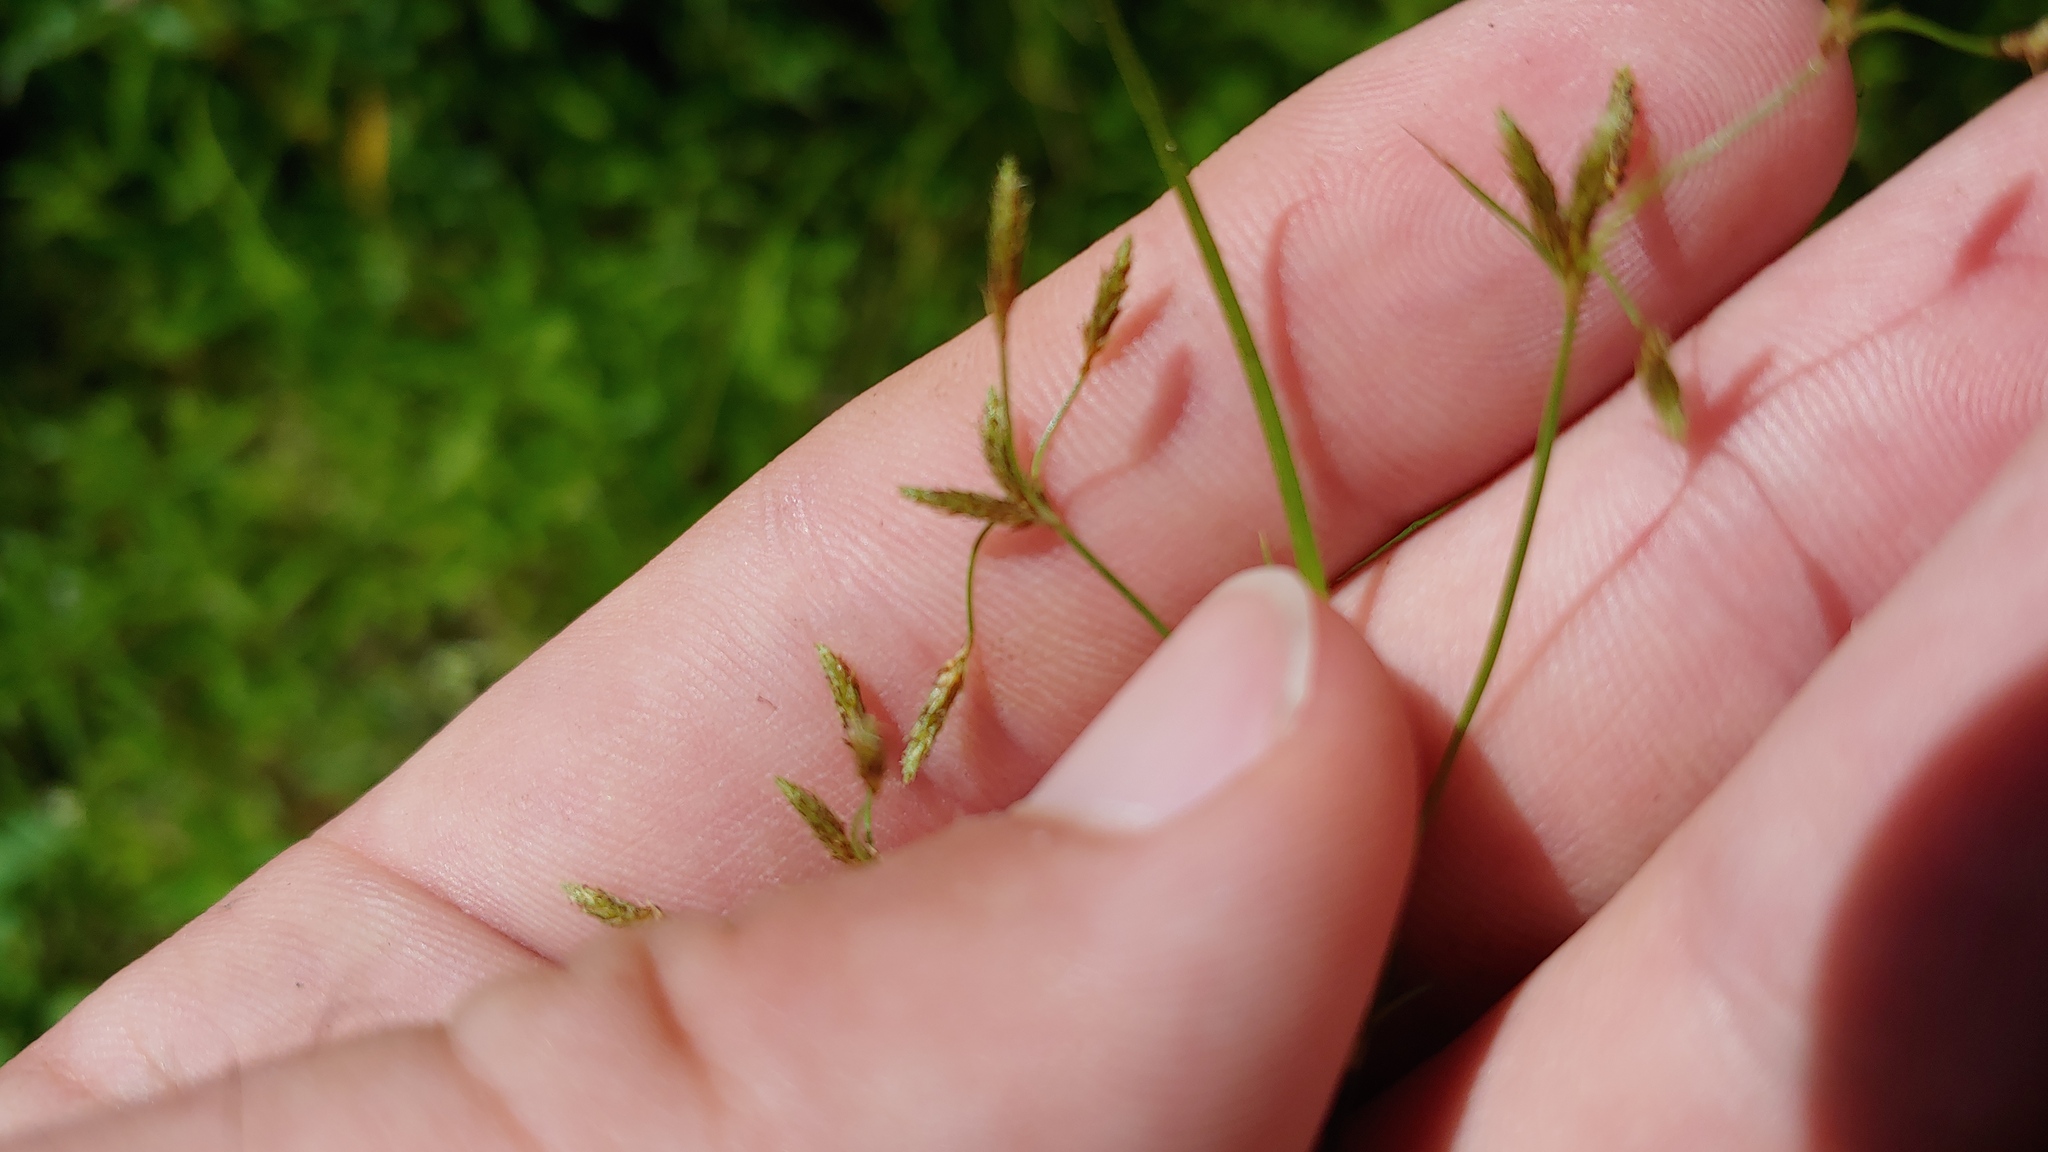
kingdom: Plantae
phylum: Tracheophyta
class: Liliopsida
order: Poales
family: Cyperaceae
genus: Fimbristylis
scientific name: Fimbristylis autumnalis
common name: Slender fimbristylis
